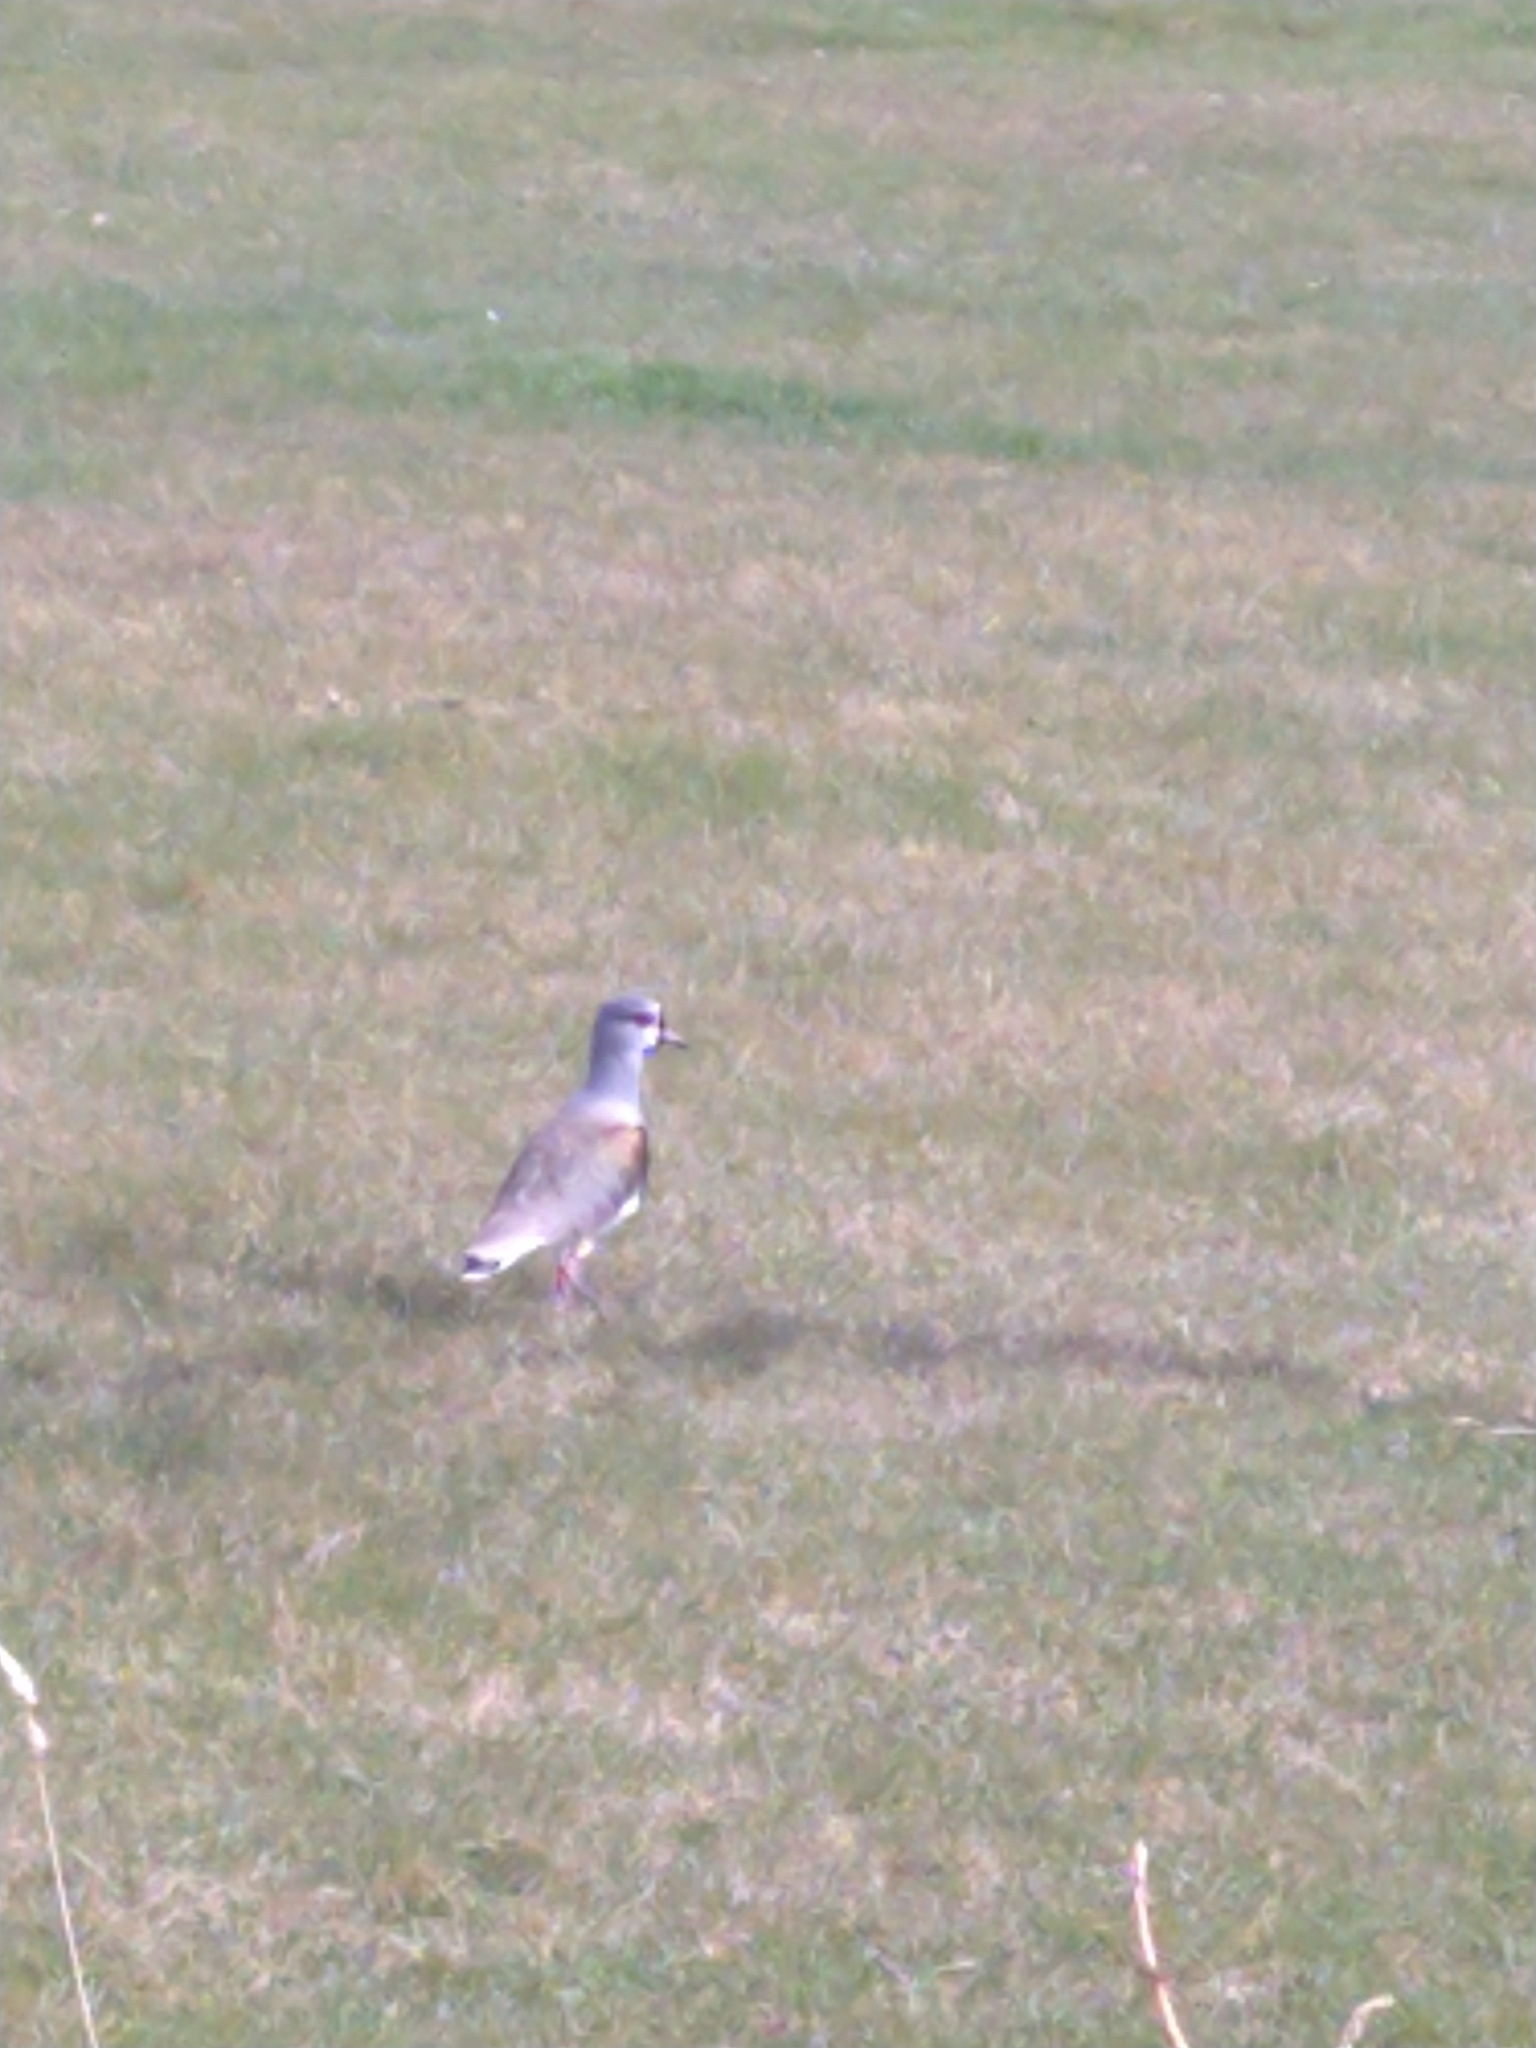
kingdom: Animalia
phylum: Chordata
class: Aves
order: Charadriiformes
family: Charadriidae
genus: Vanellus
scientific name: Vanellus chilensis
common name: Southern lapwing
